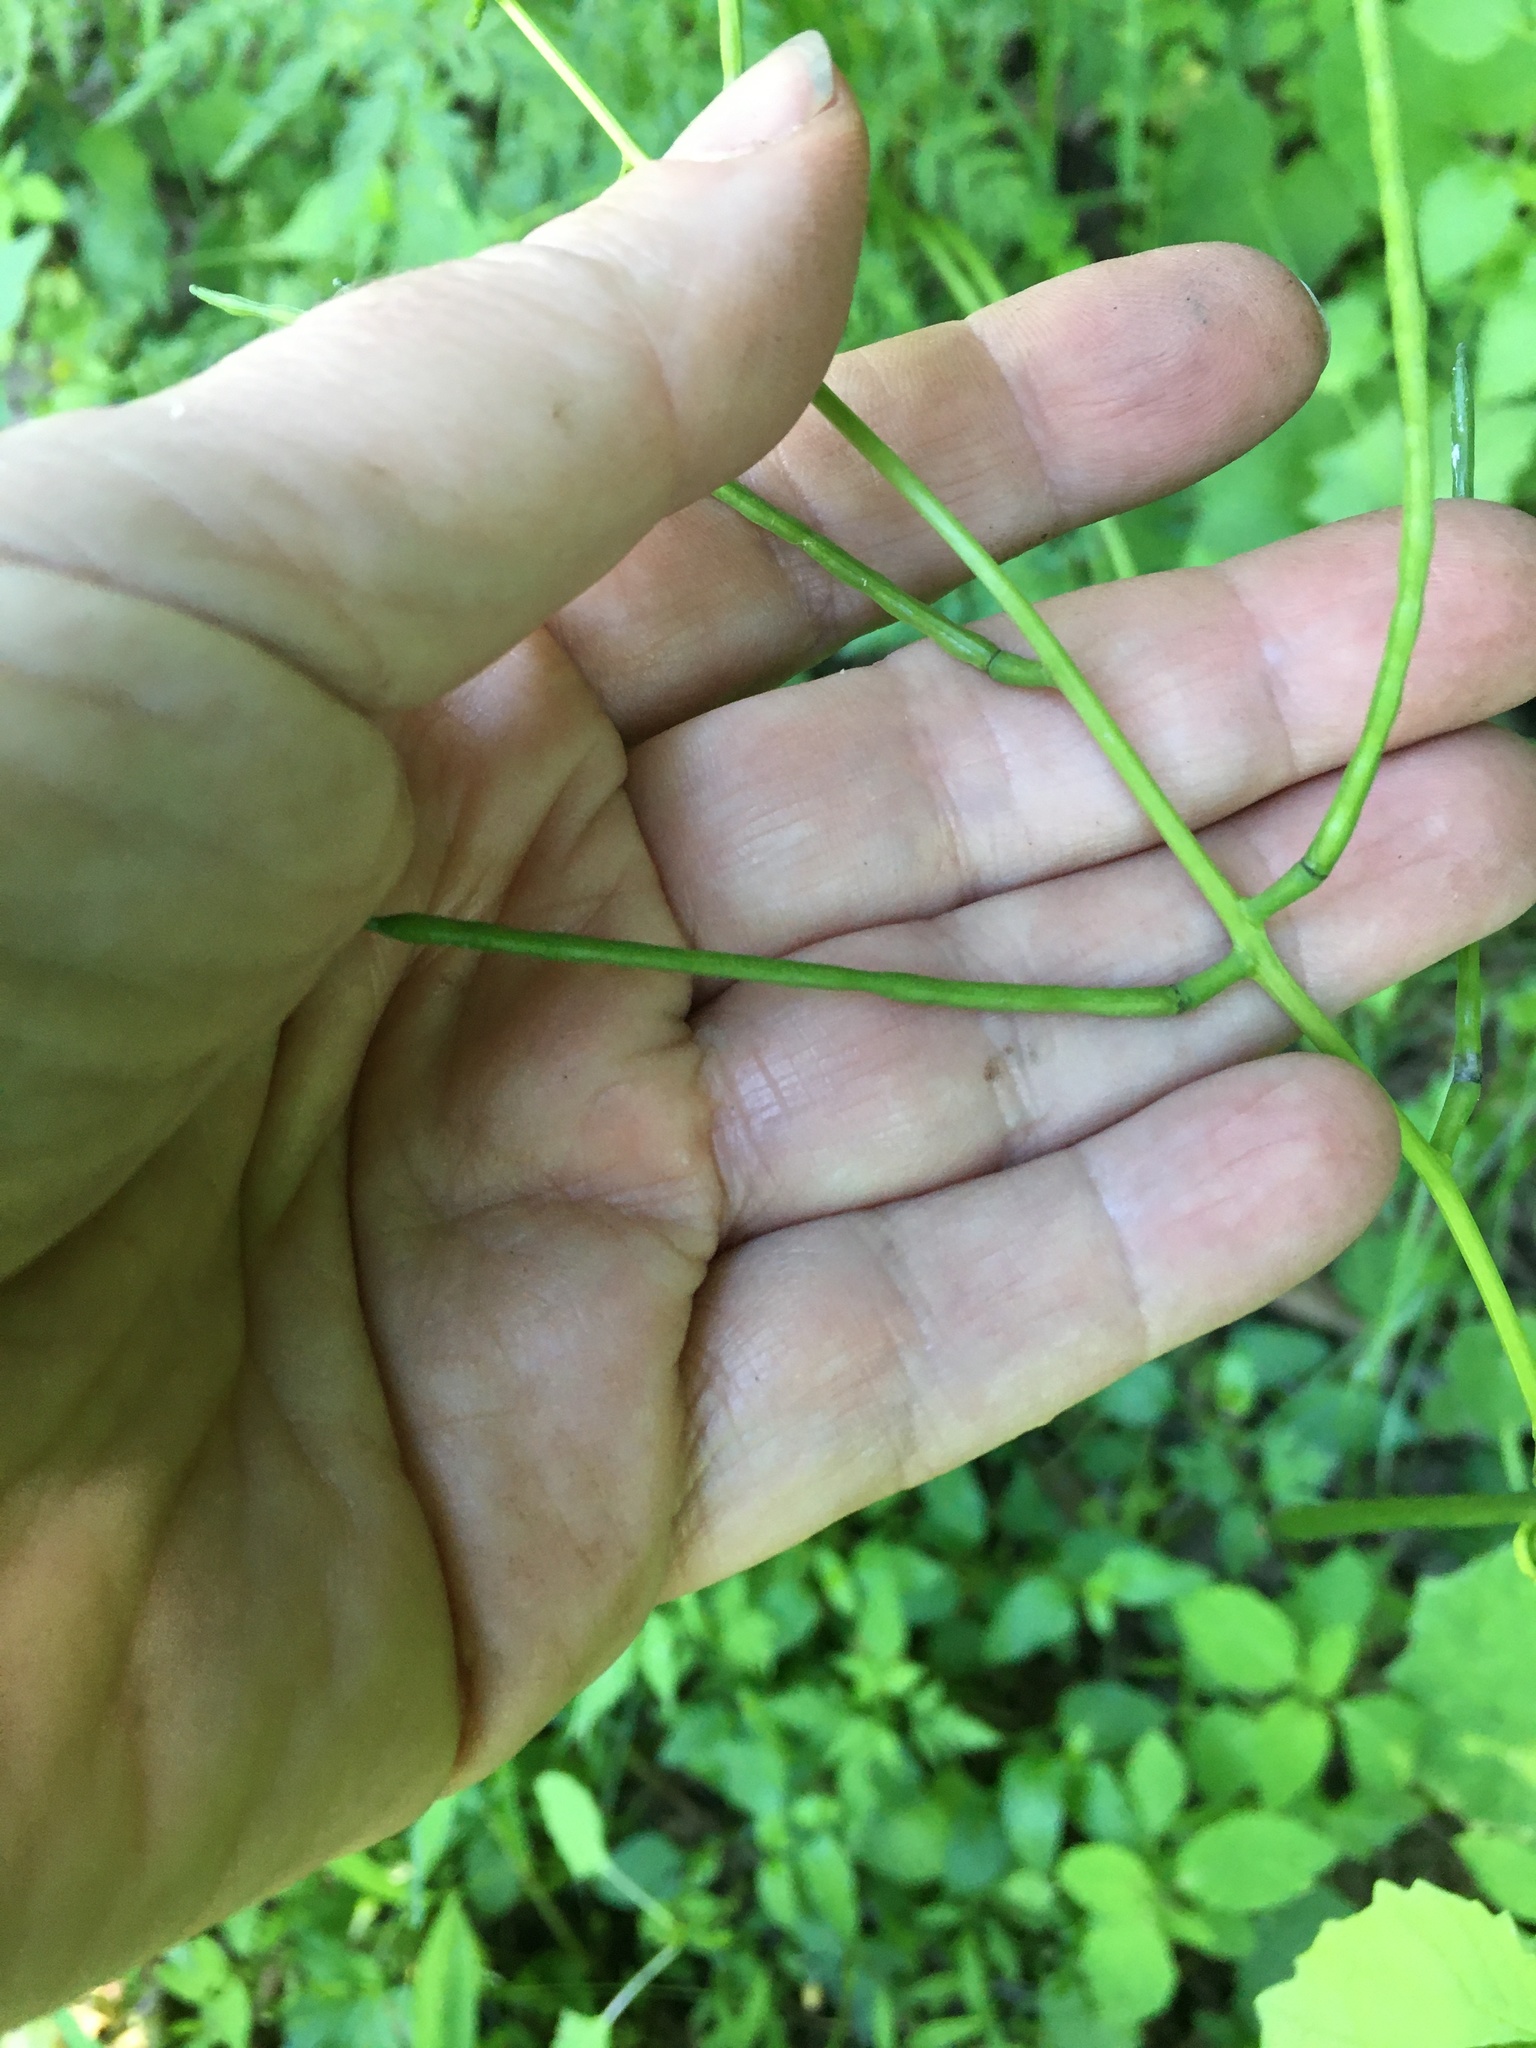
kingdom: Plantae
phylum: Tracheophyta
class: Magnoliopsida
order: Brassicales
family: Brassicaceae
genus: Alliaria
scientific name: Alliaria petiolata
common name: Garlic mustard
